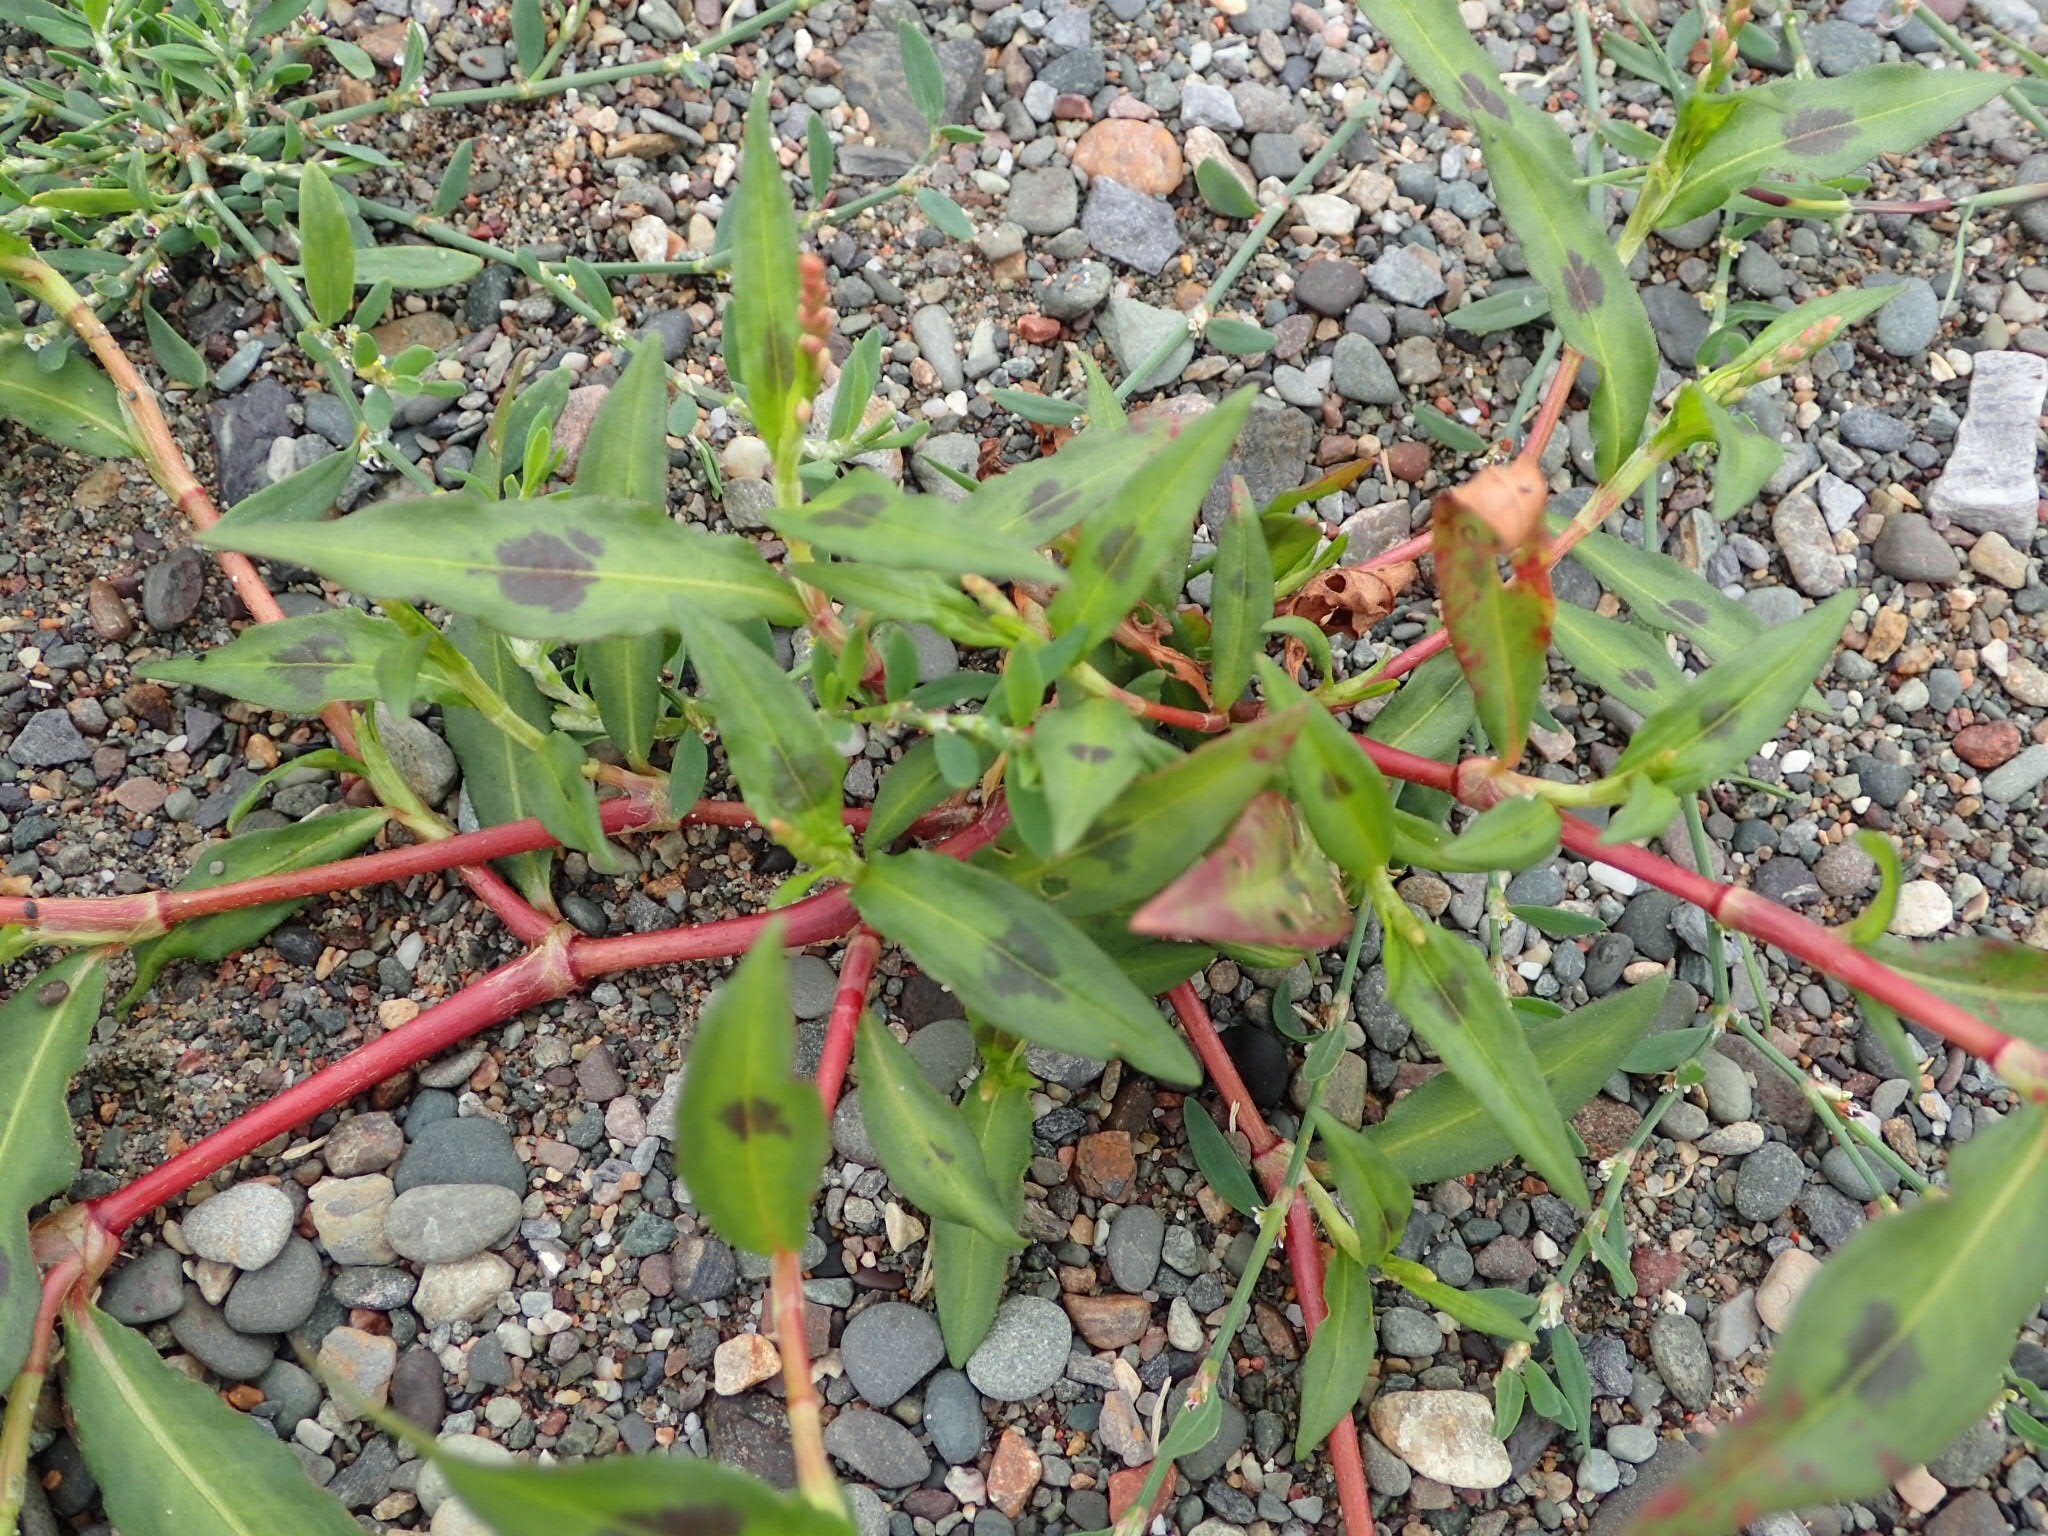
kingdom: Plantae
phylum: Tracheophyta
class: Magnoliopsida
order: Caryophyllales
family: Polygonaceae
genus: Persicaria
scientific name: Persicaria maculosa
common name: Redshank
